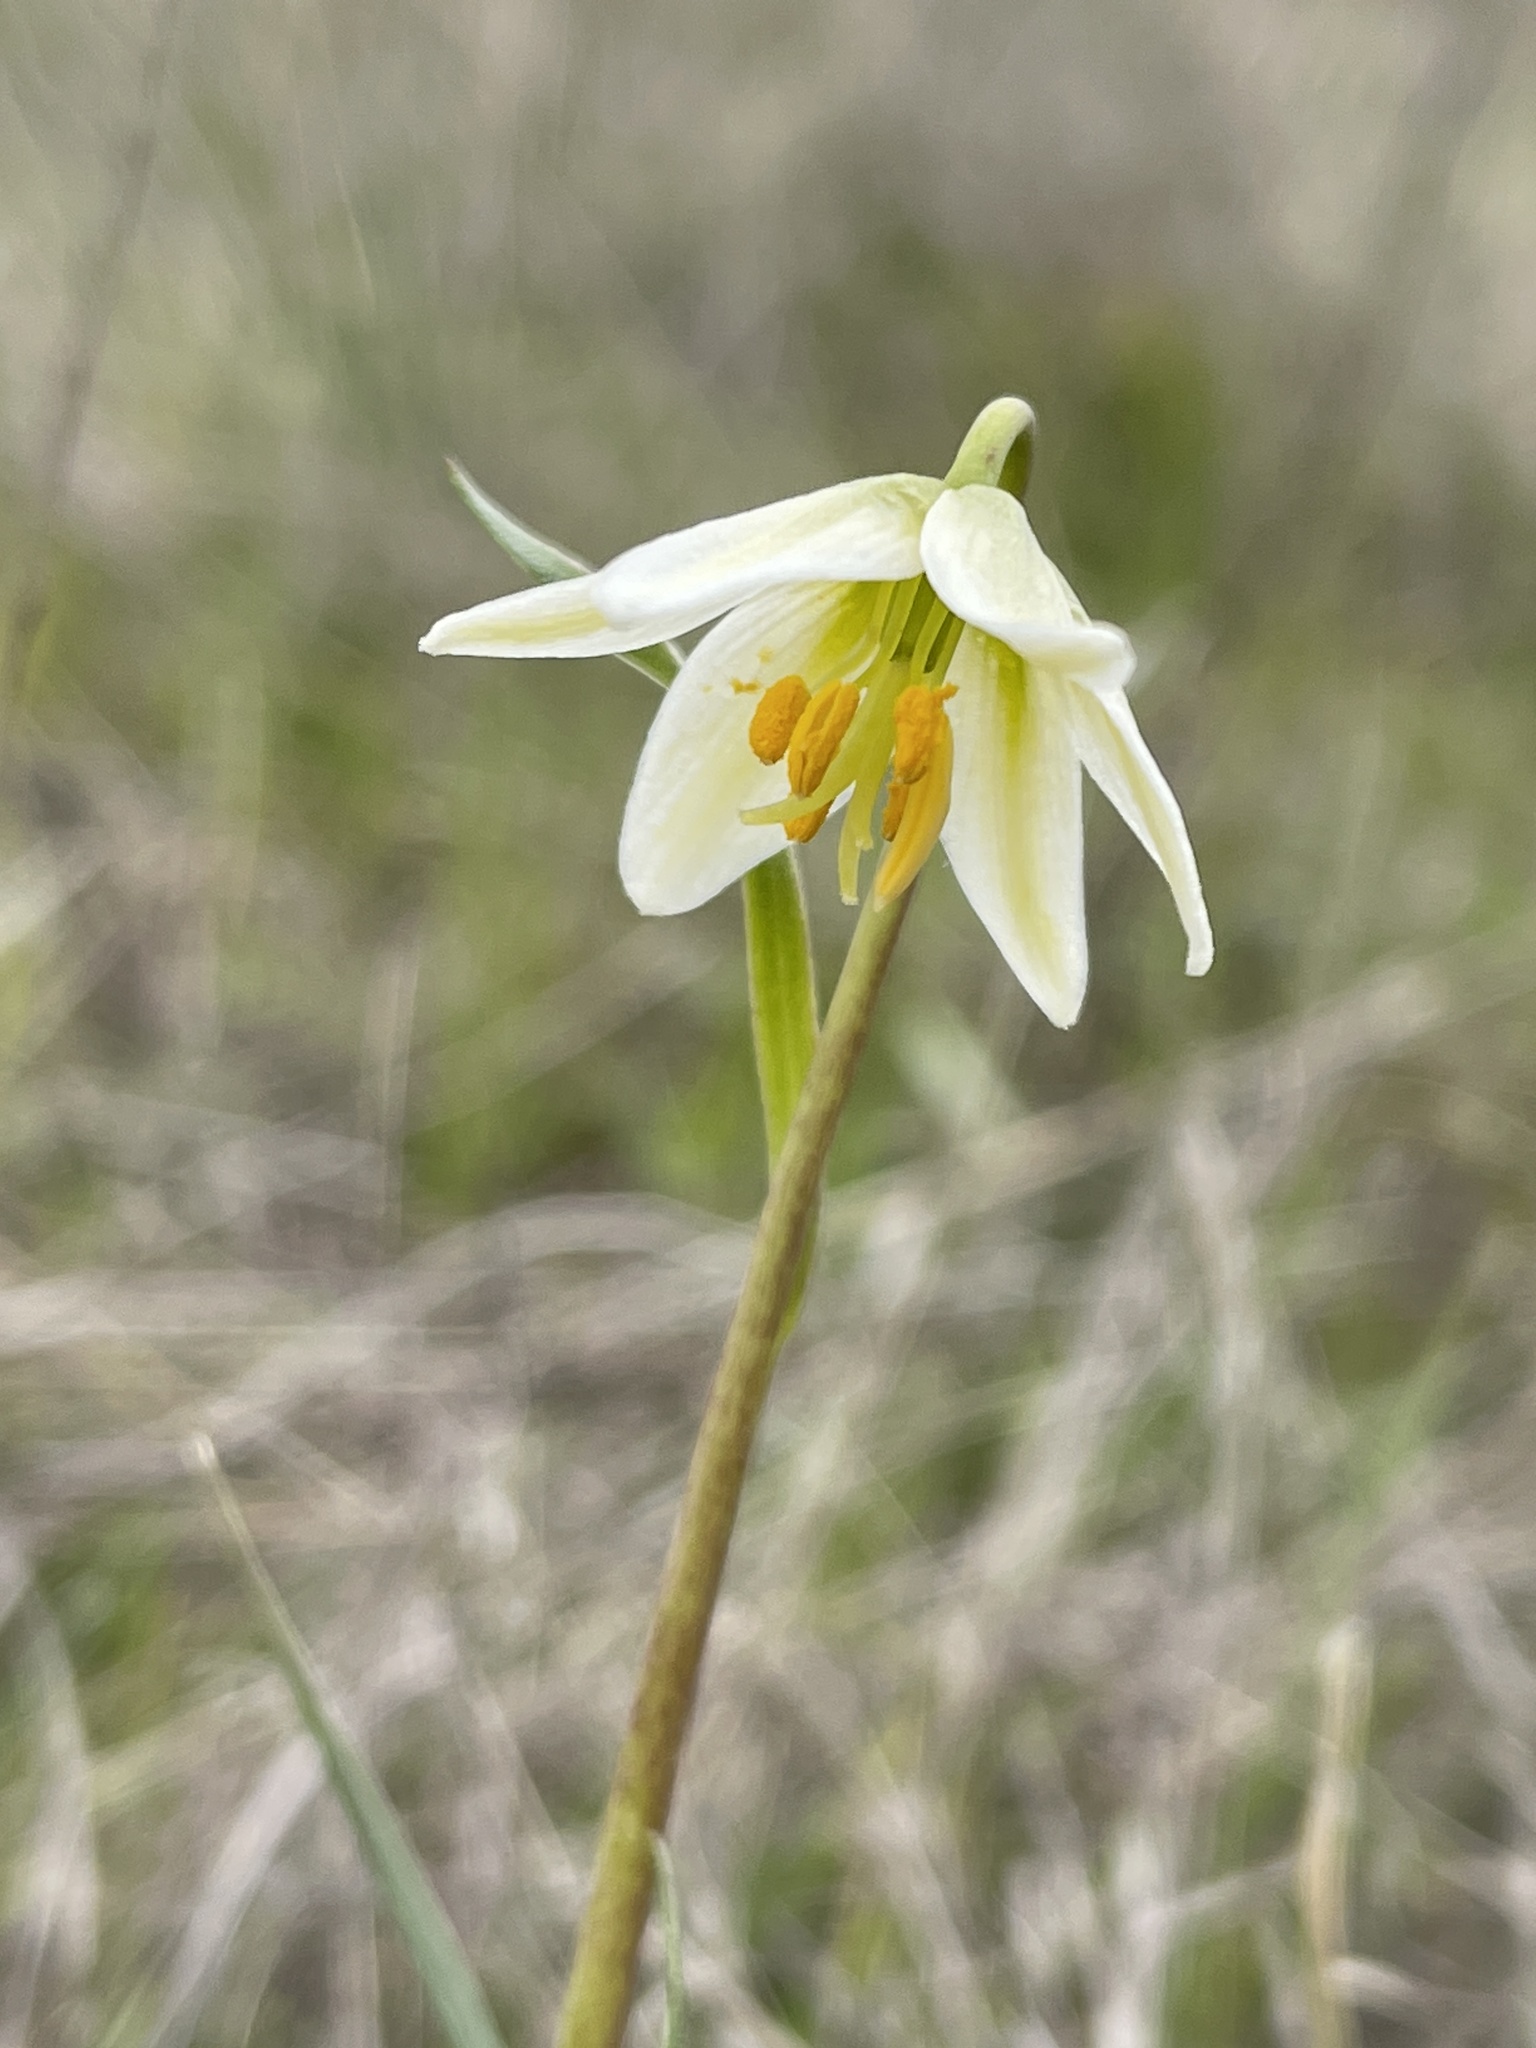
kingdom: Plantae
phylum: Tracheophyta
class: Liliopsida
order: Liliales
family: Liliaceae
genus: Fritillaria
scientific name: Fritillaria liliacea
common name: Fragrant fritillary
